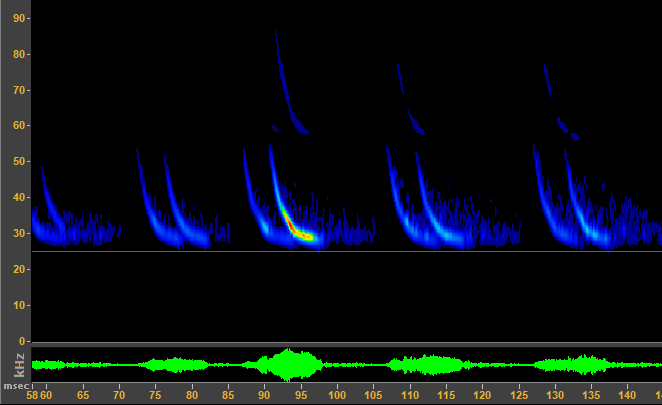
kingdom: Animalia
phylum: Chordata
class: Mammalia
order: Chiroptera
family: Vespertilionidae
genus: Lasionycteris
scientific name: Lasionycteris noctivagans
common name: Silver-haired bat
